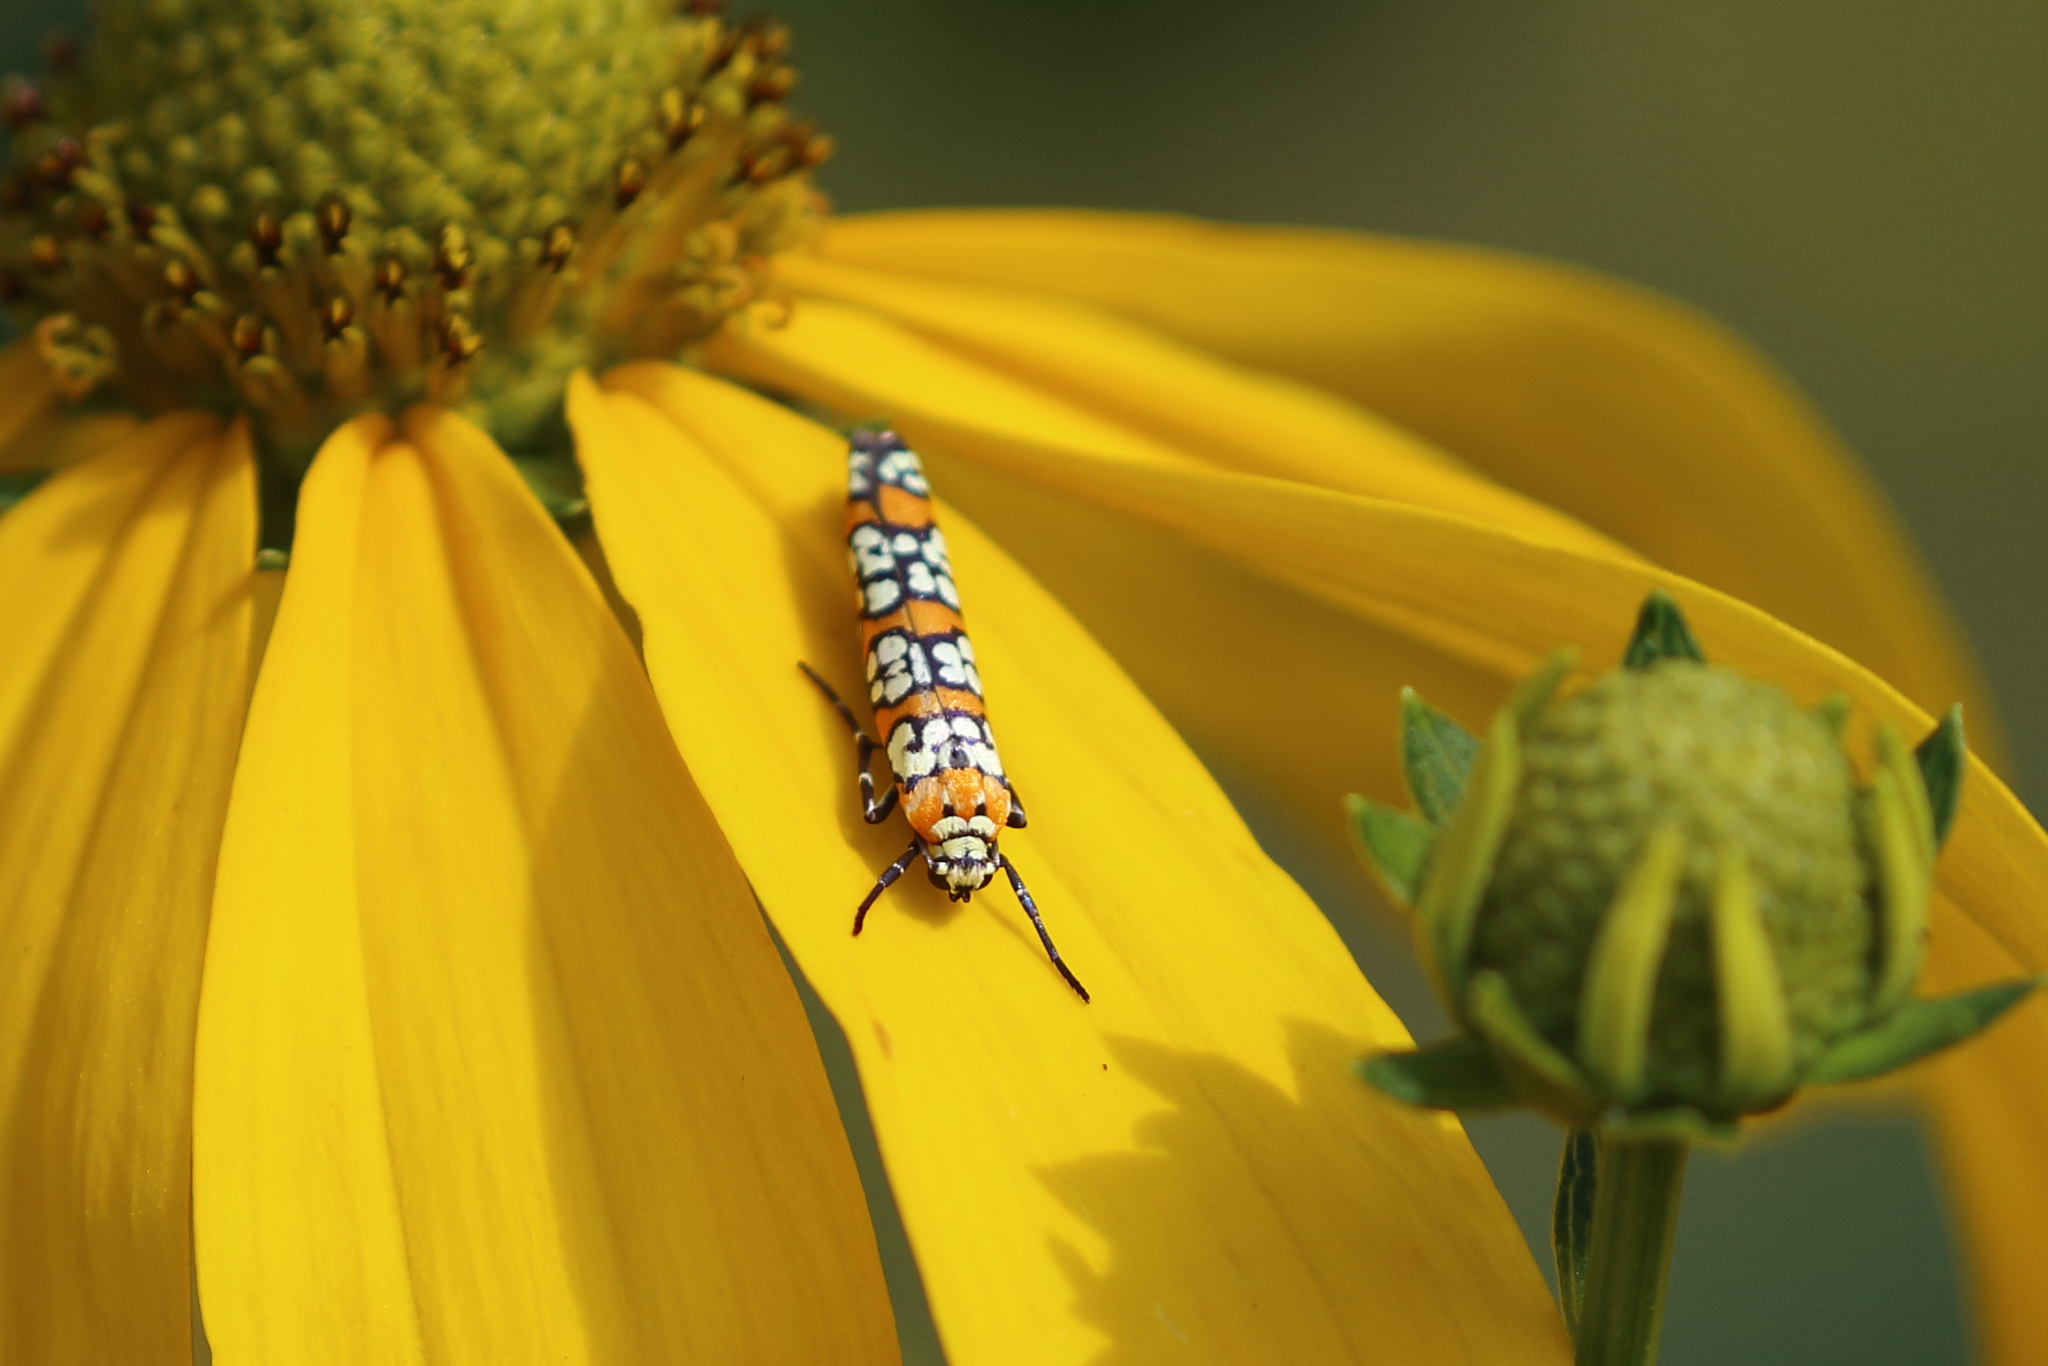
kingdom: Animalia
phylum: Arthropoda
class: Insecta
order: Lepidoptera
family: Attevidae
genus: Atteva
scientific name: Atteva punctella
